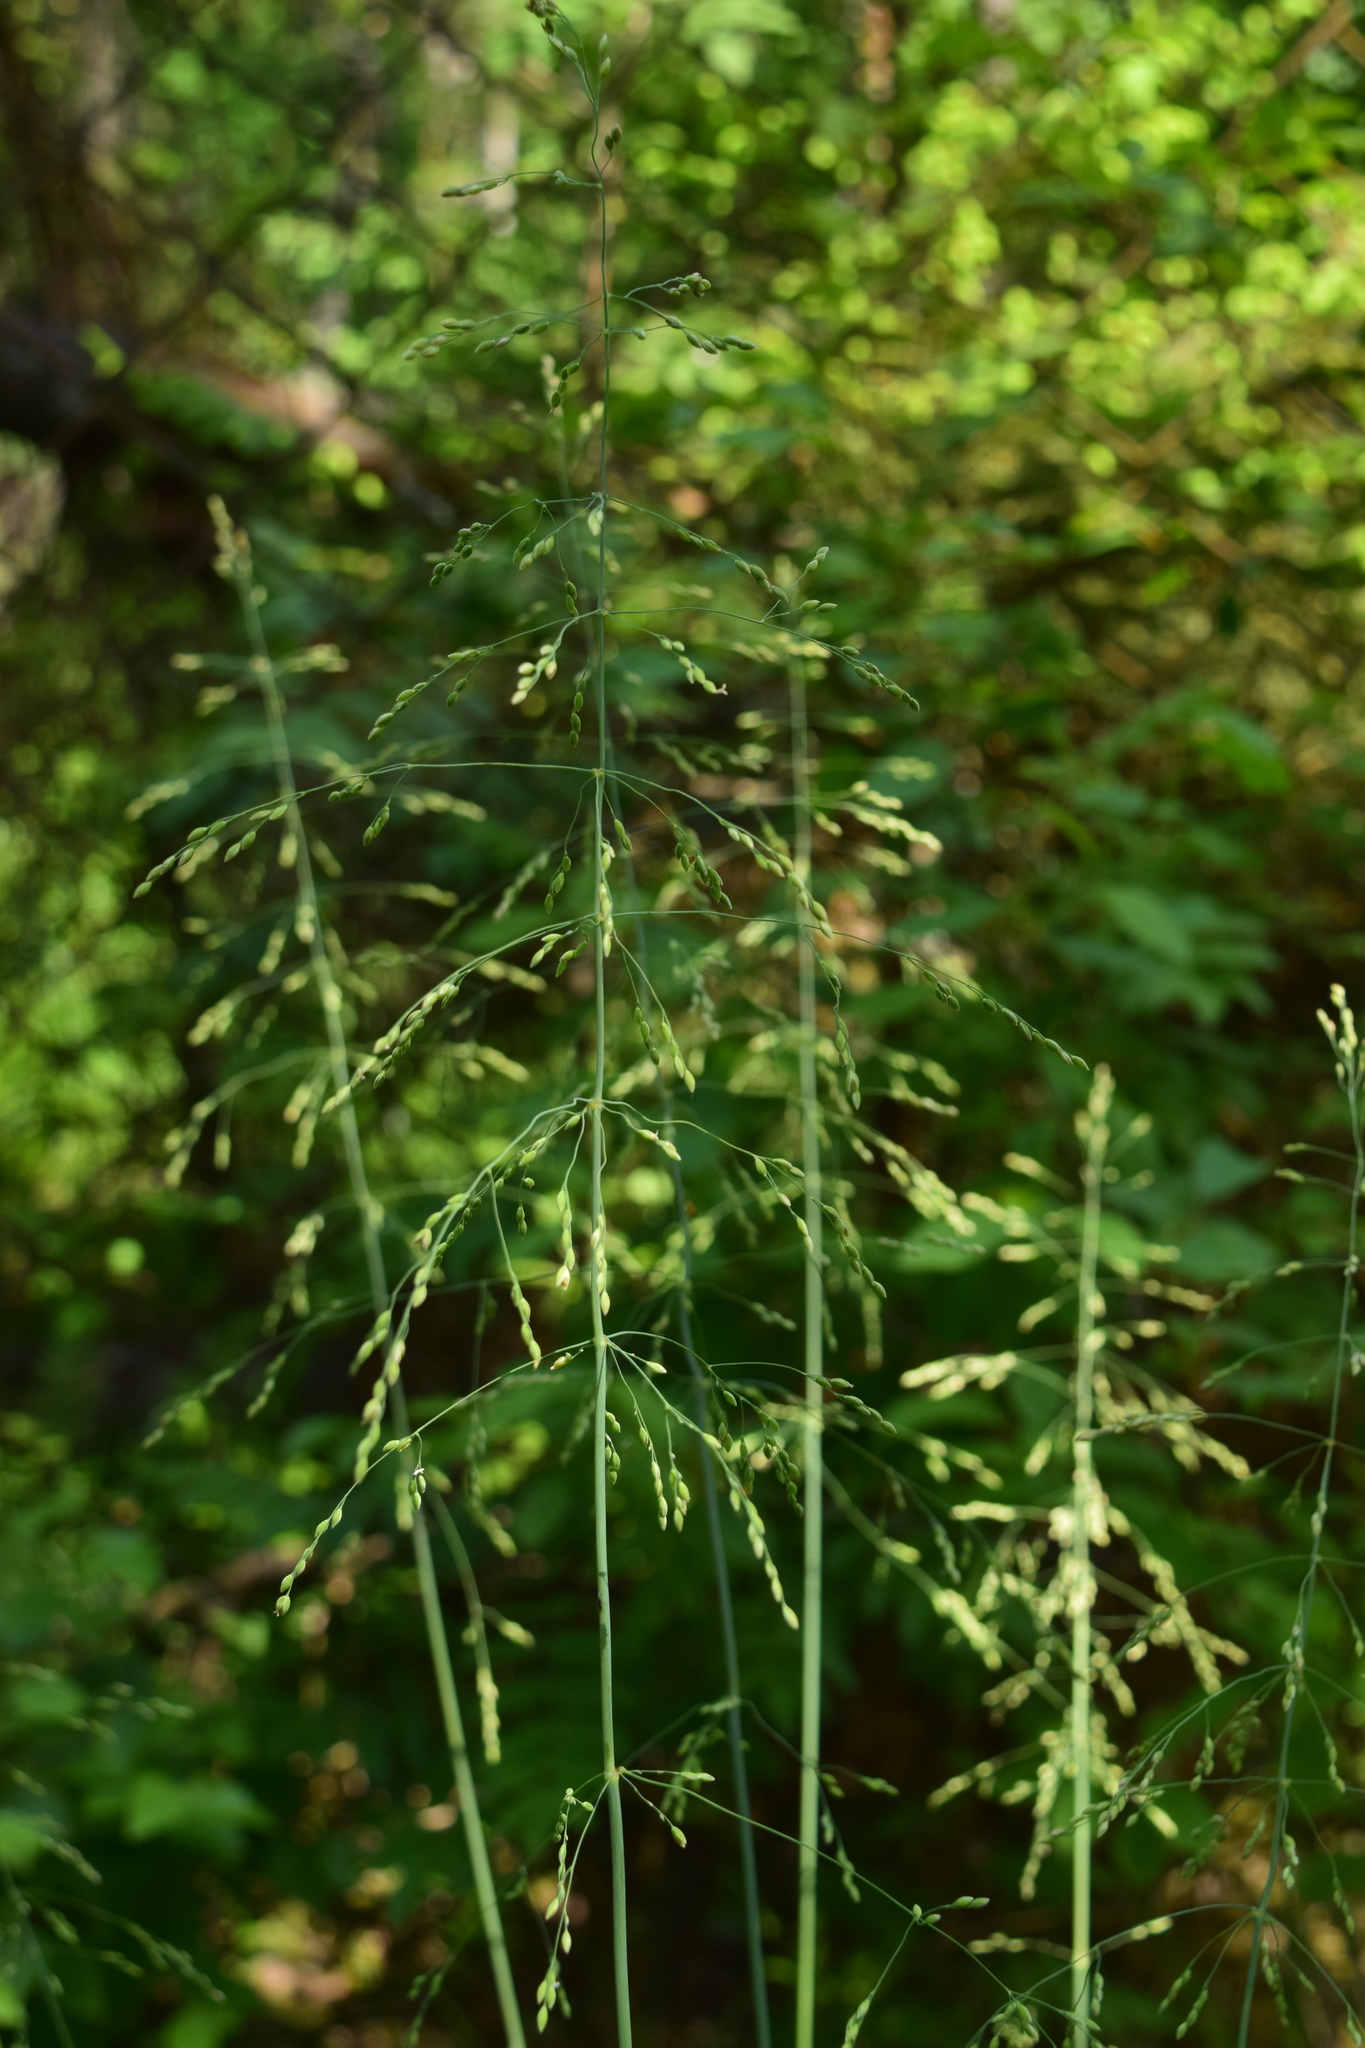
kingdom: Plantae
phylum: Tracheophyta
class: Liliopsida
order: Poales
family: Poaceae
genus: Milium
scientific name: Milium effusum
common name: Wood millet
